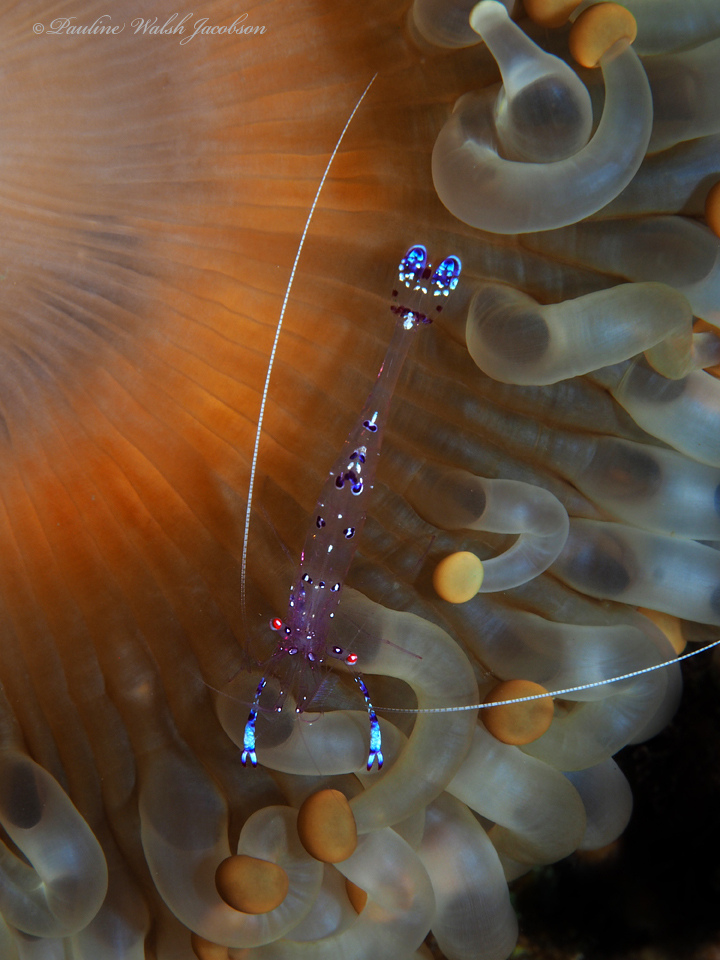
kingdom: Animalia
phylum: Arthropoda
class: Malacostraca
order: Decapoda
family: Palaemonidae
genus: Ancylomenes
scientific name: Ancylomenes sarasvati
